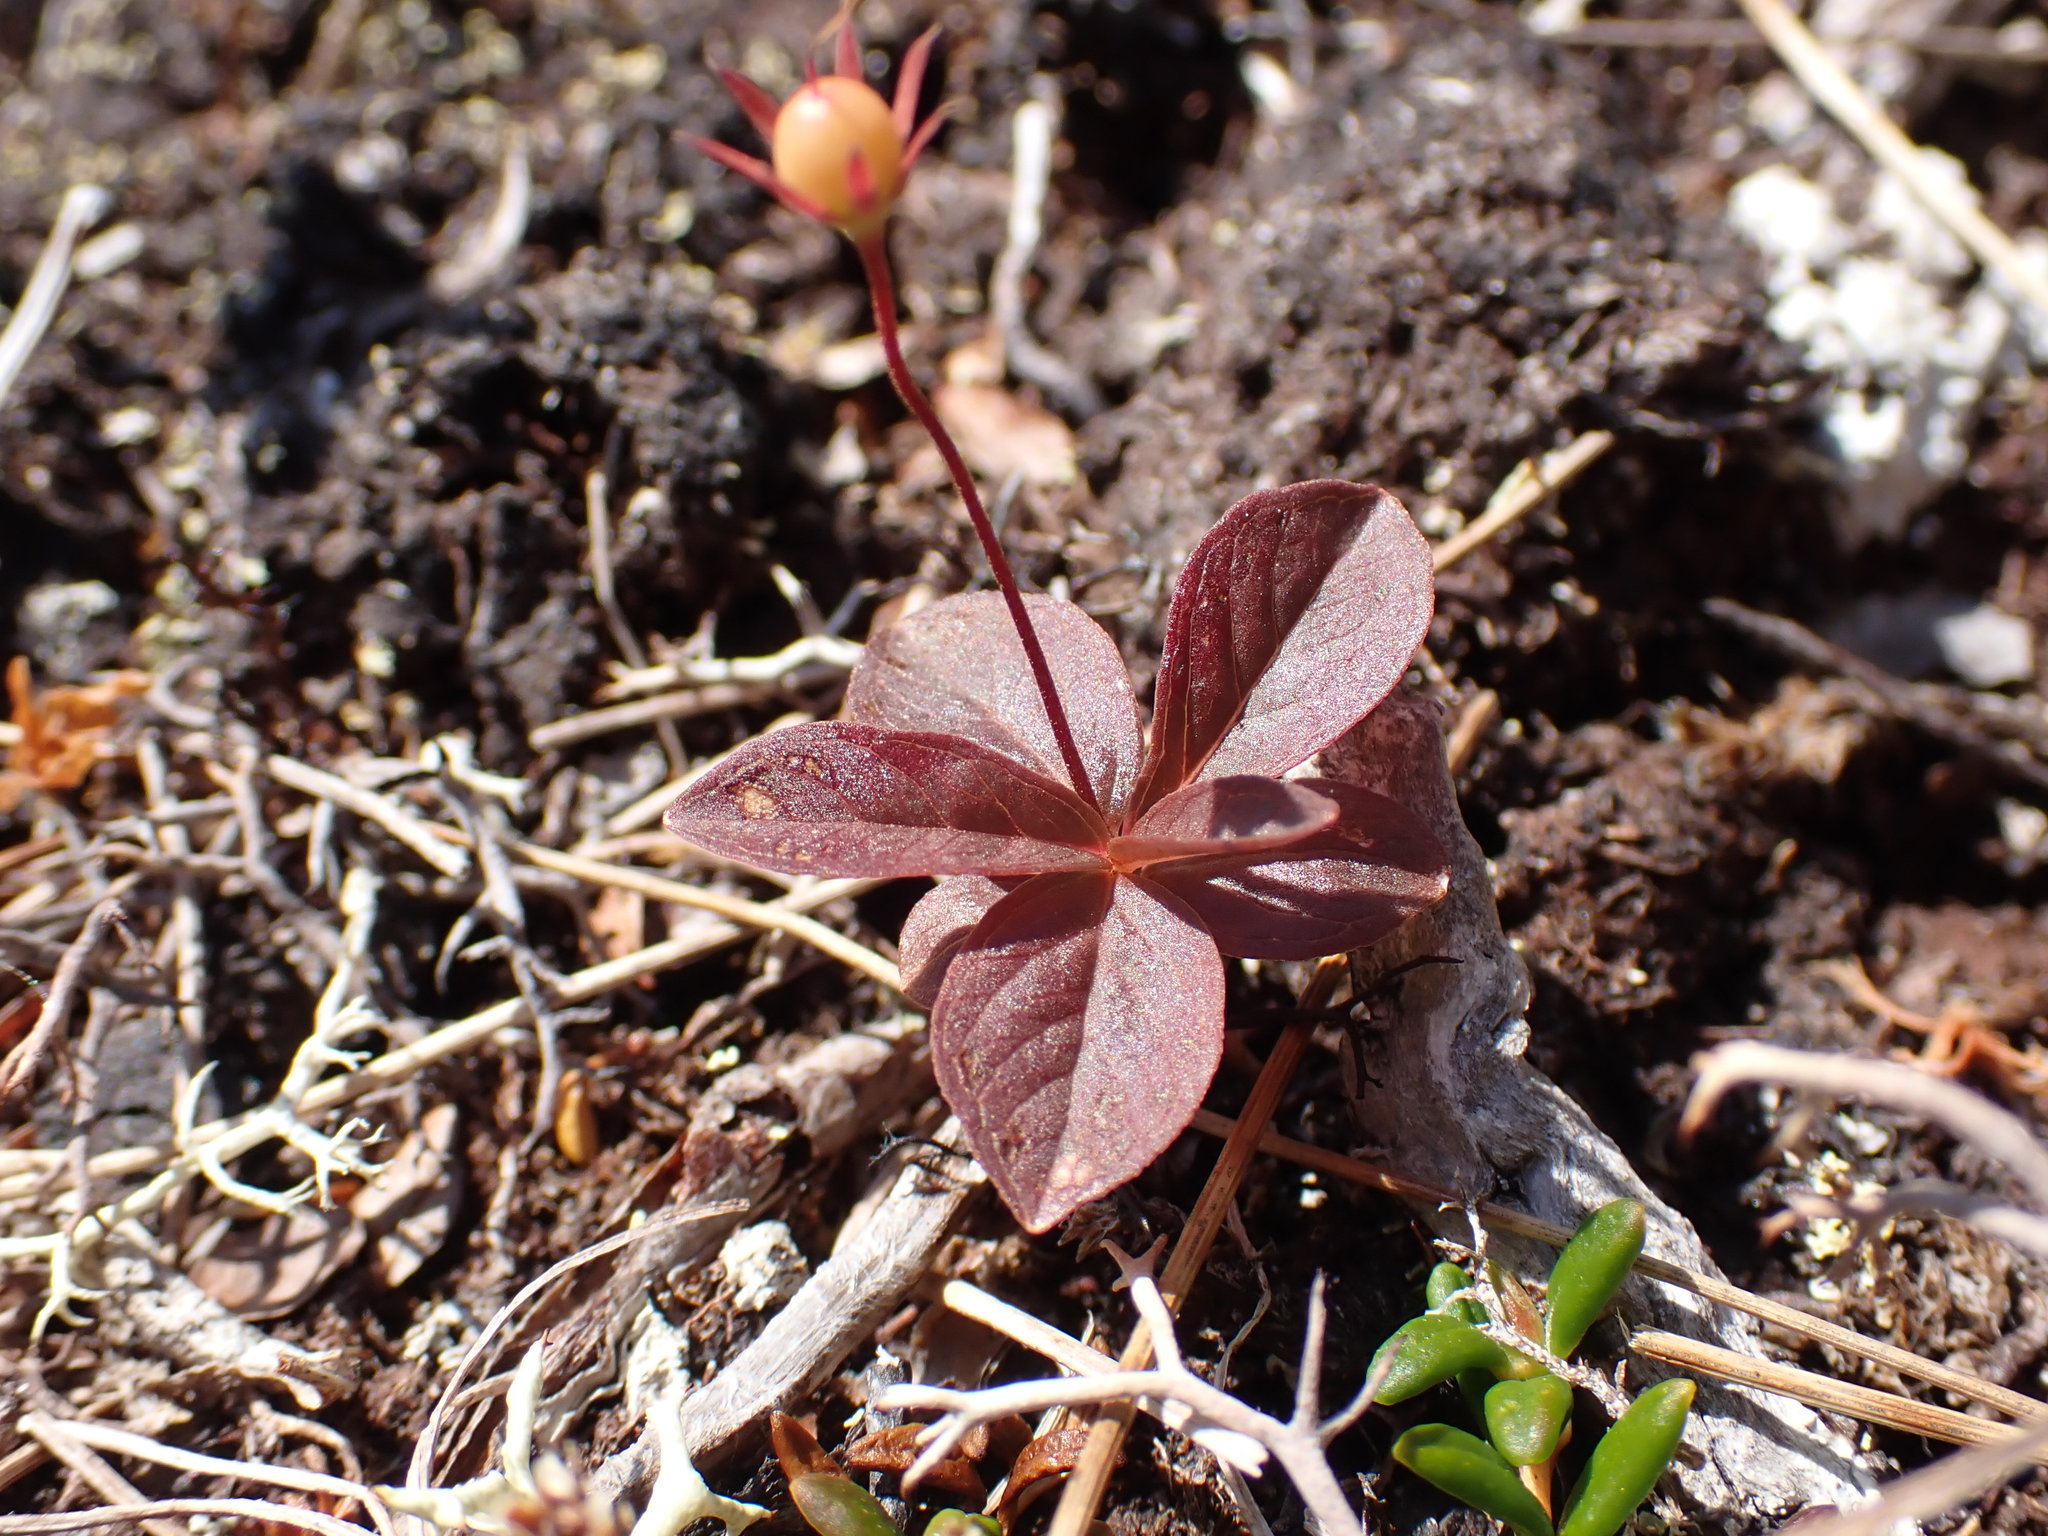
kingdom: Plantae
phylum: Tracheophyta
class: Magnoliopsida
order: Ericales
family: Primulaceae
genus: Lysimachia
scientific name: Lysimachia europaea
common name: Arctic starflower
